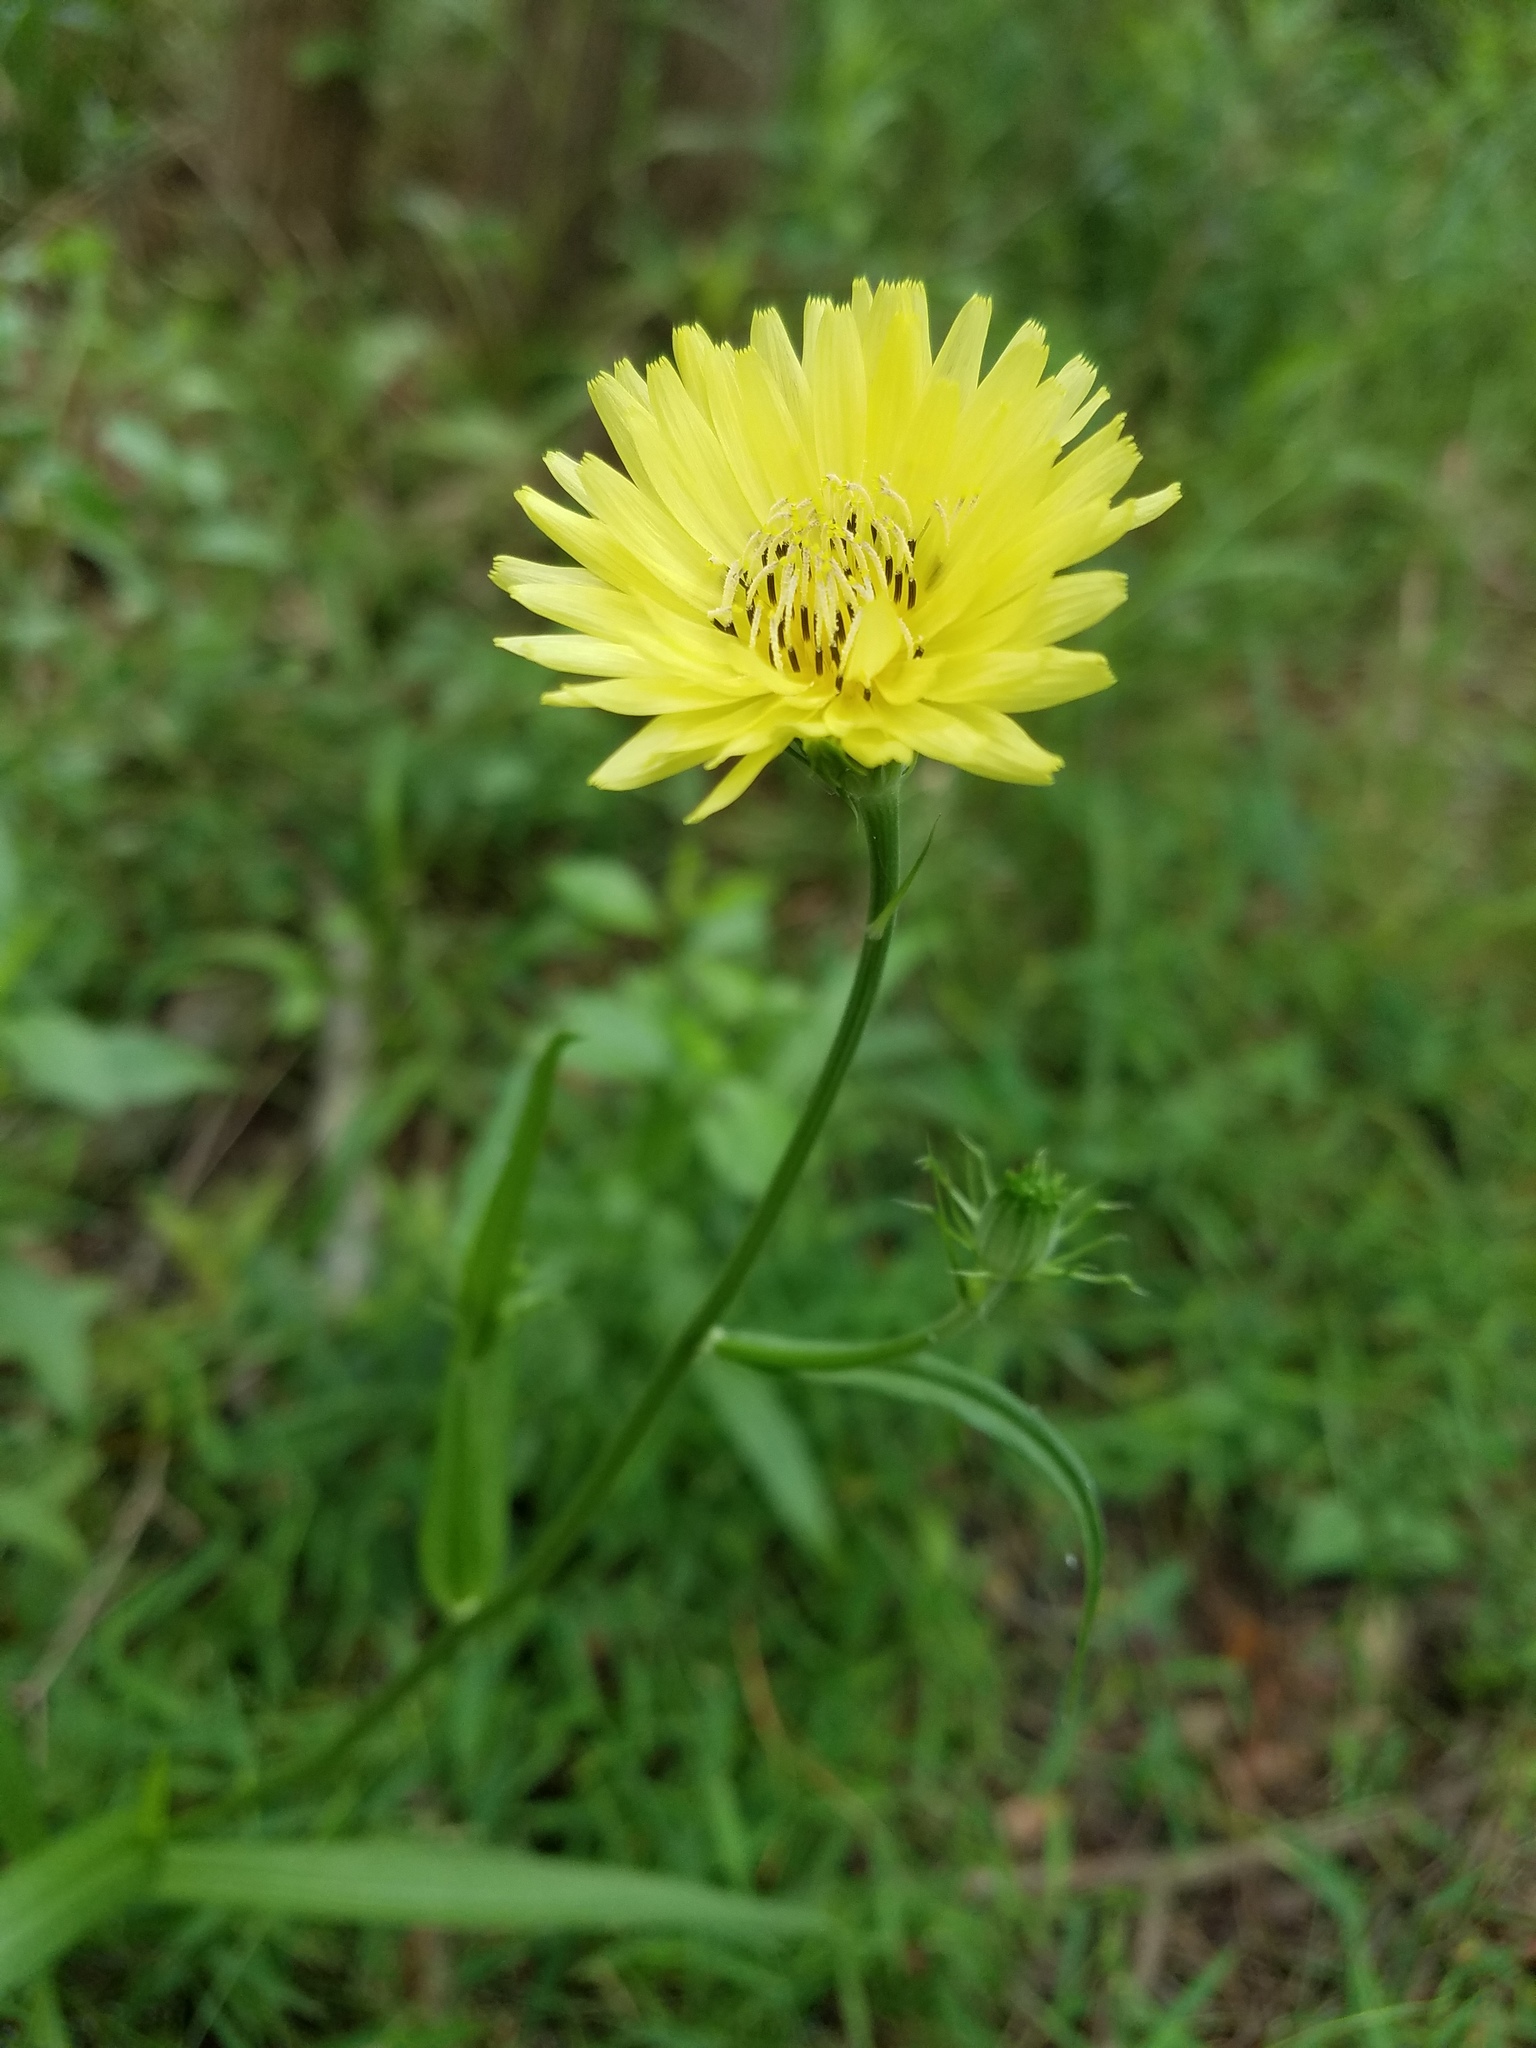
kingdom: Plantae
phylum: Tracheophyta
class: Magnoliopsida
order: Asterales
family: Asteraceae
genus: Pyrrhopappus
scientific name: Pyrrhopappus carolinianus
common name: Carolina desert-chicory
